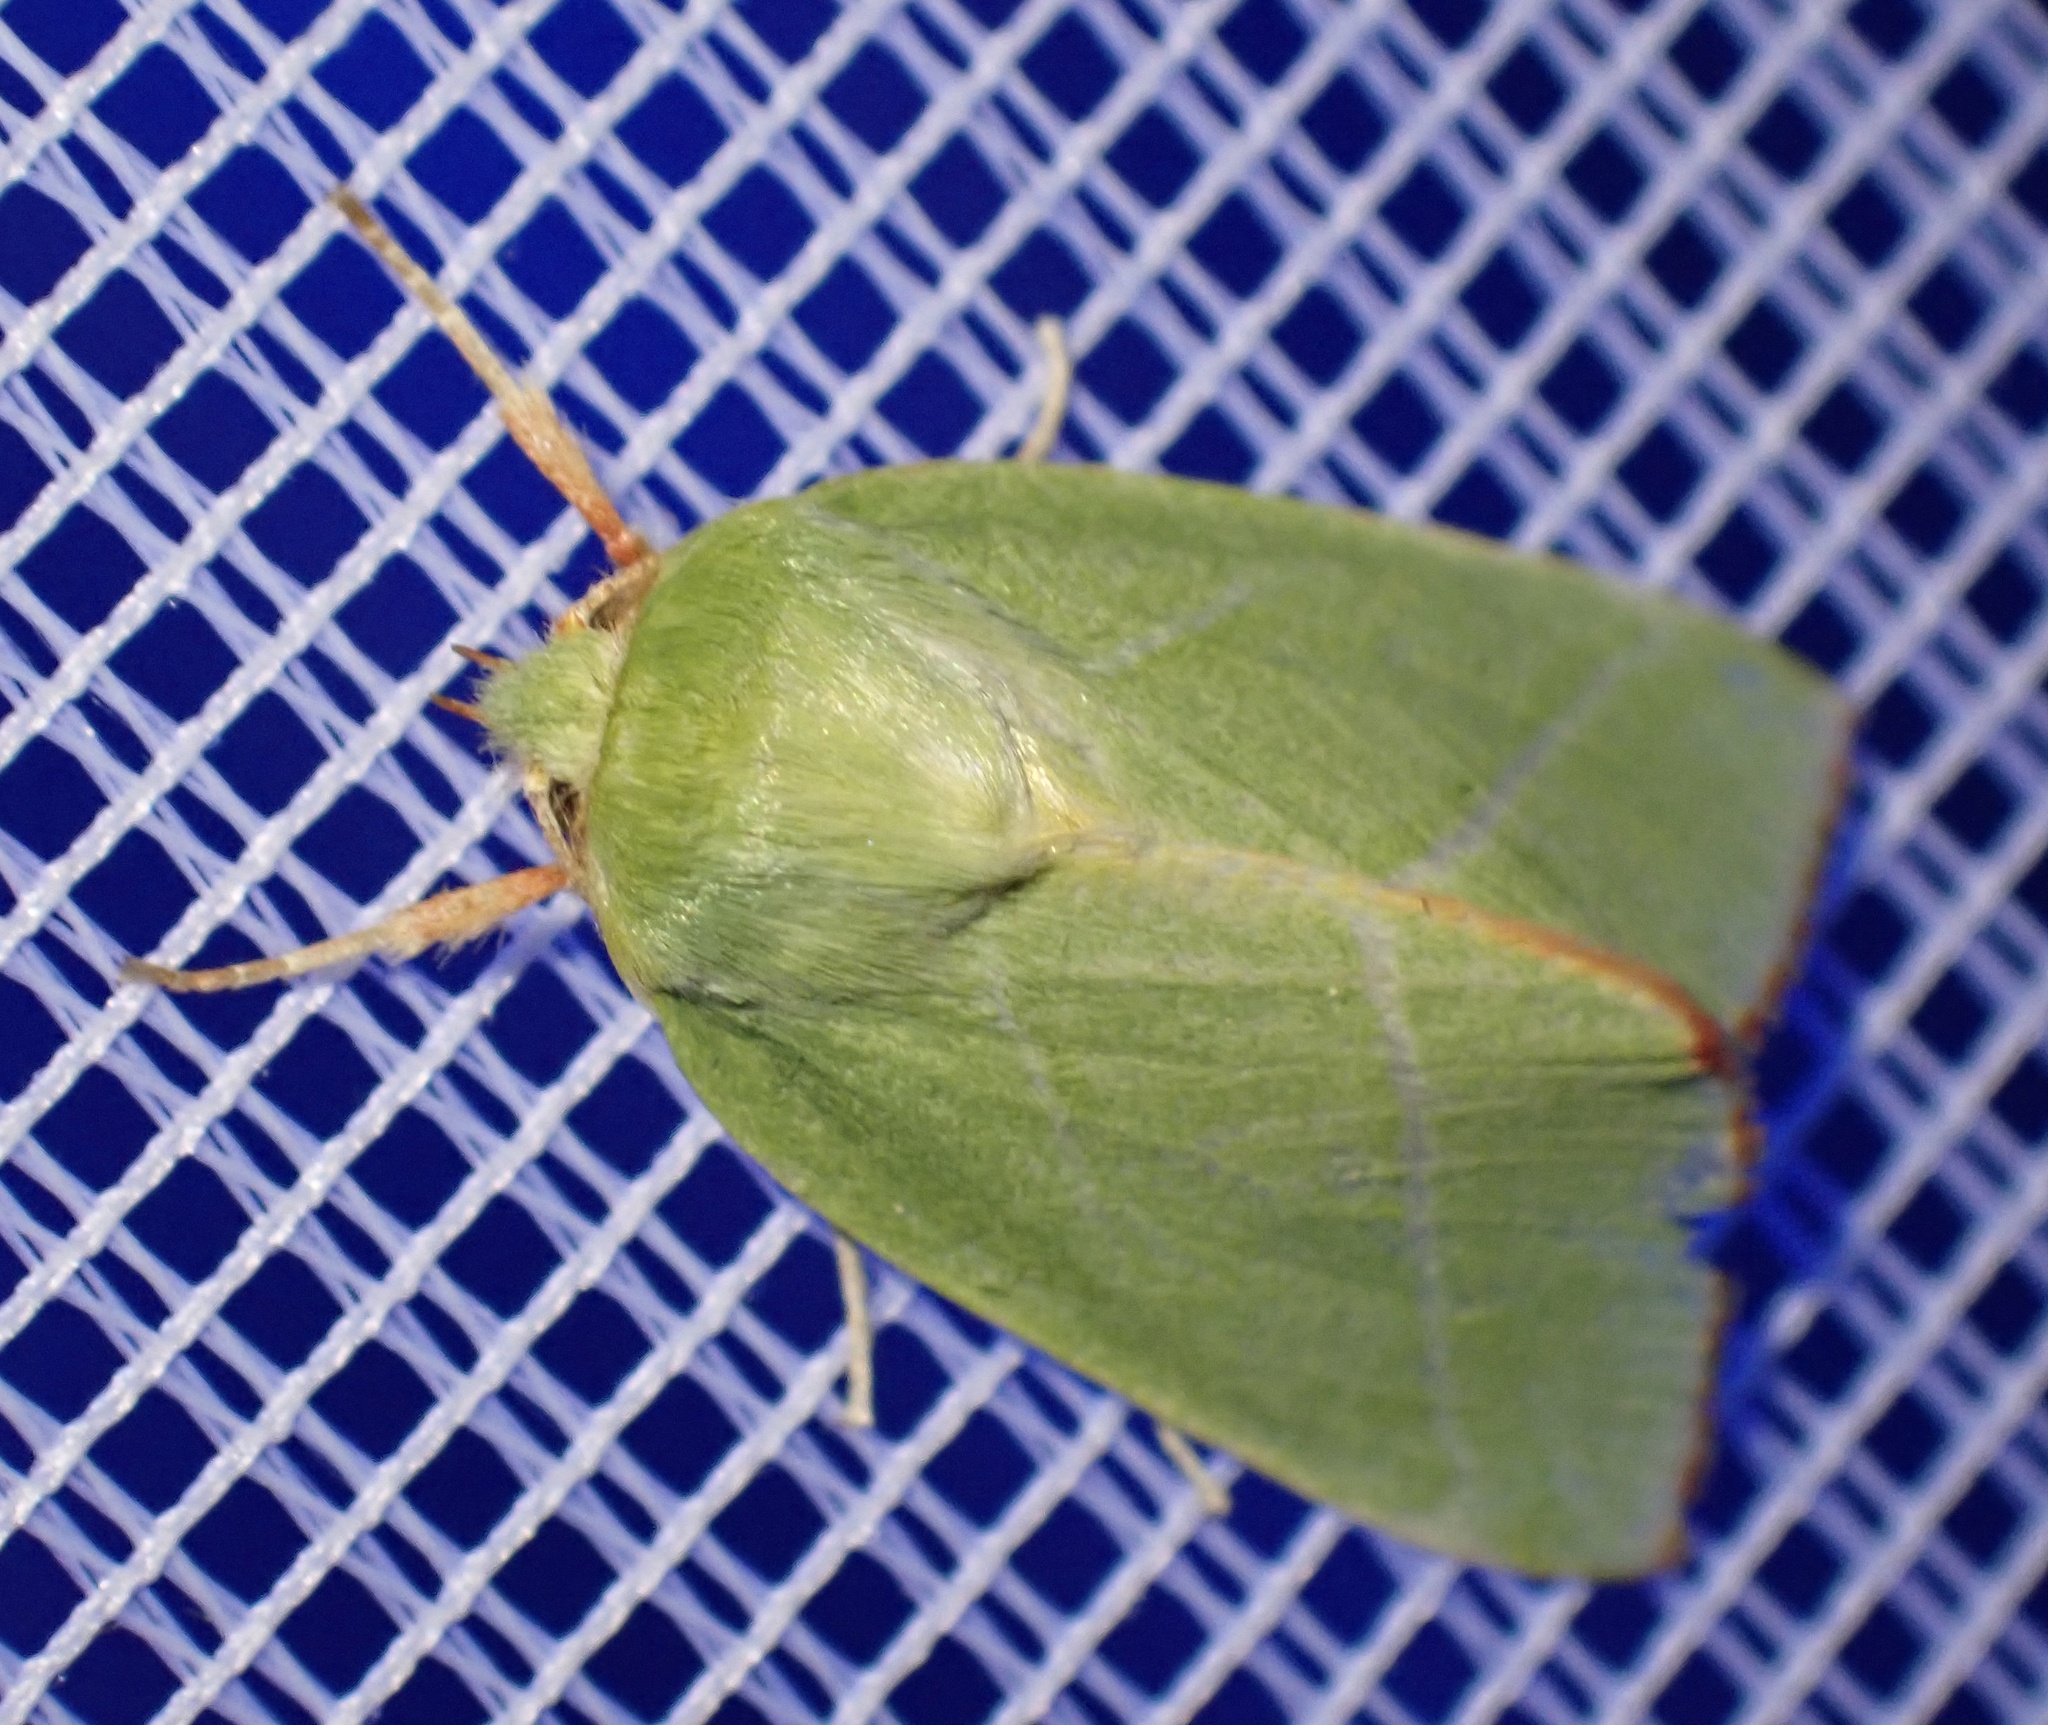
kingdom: Animalia
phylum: Arthropoda
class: Insecta
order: Lepidoptera
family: Nolidae
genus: Pseudoips
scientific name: Pseudoips prasinana
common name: Green silver-lines
